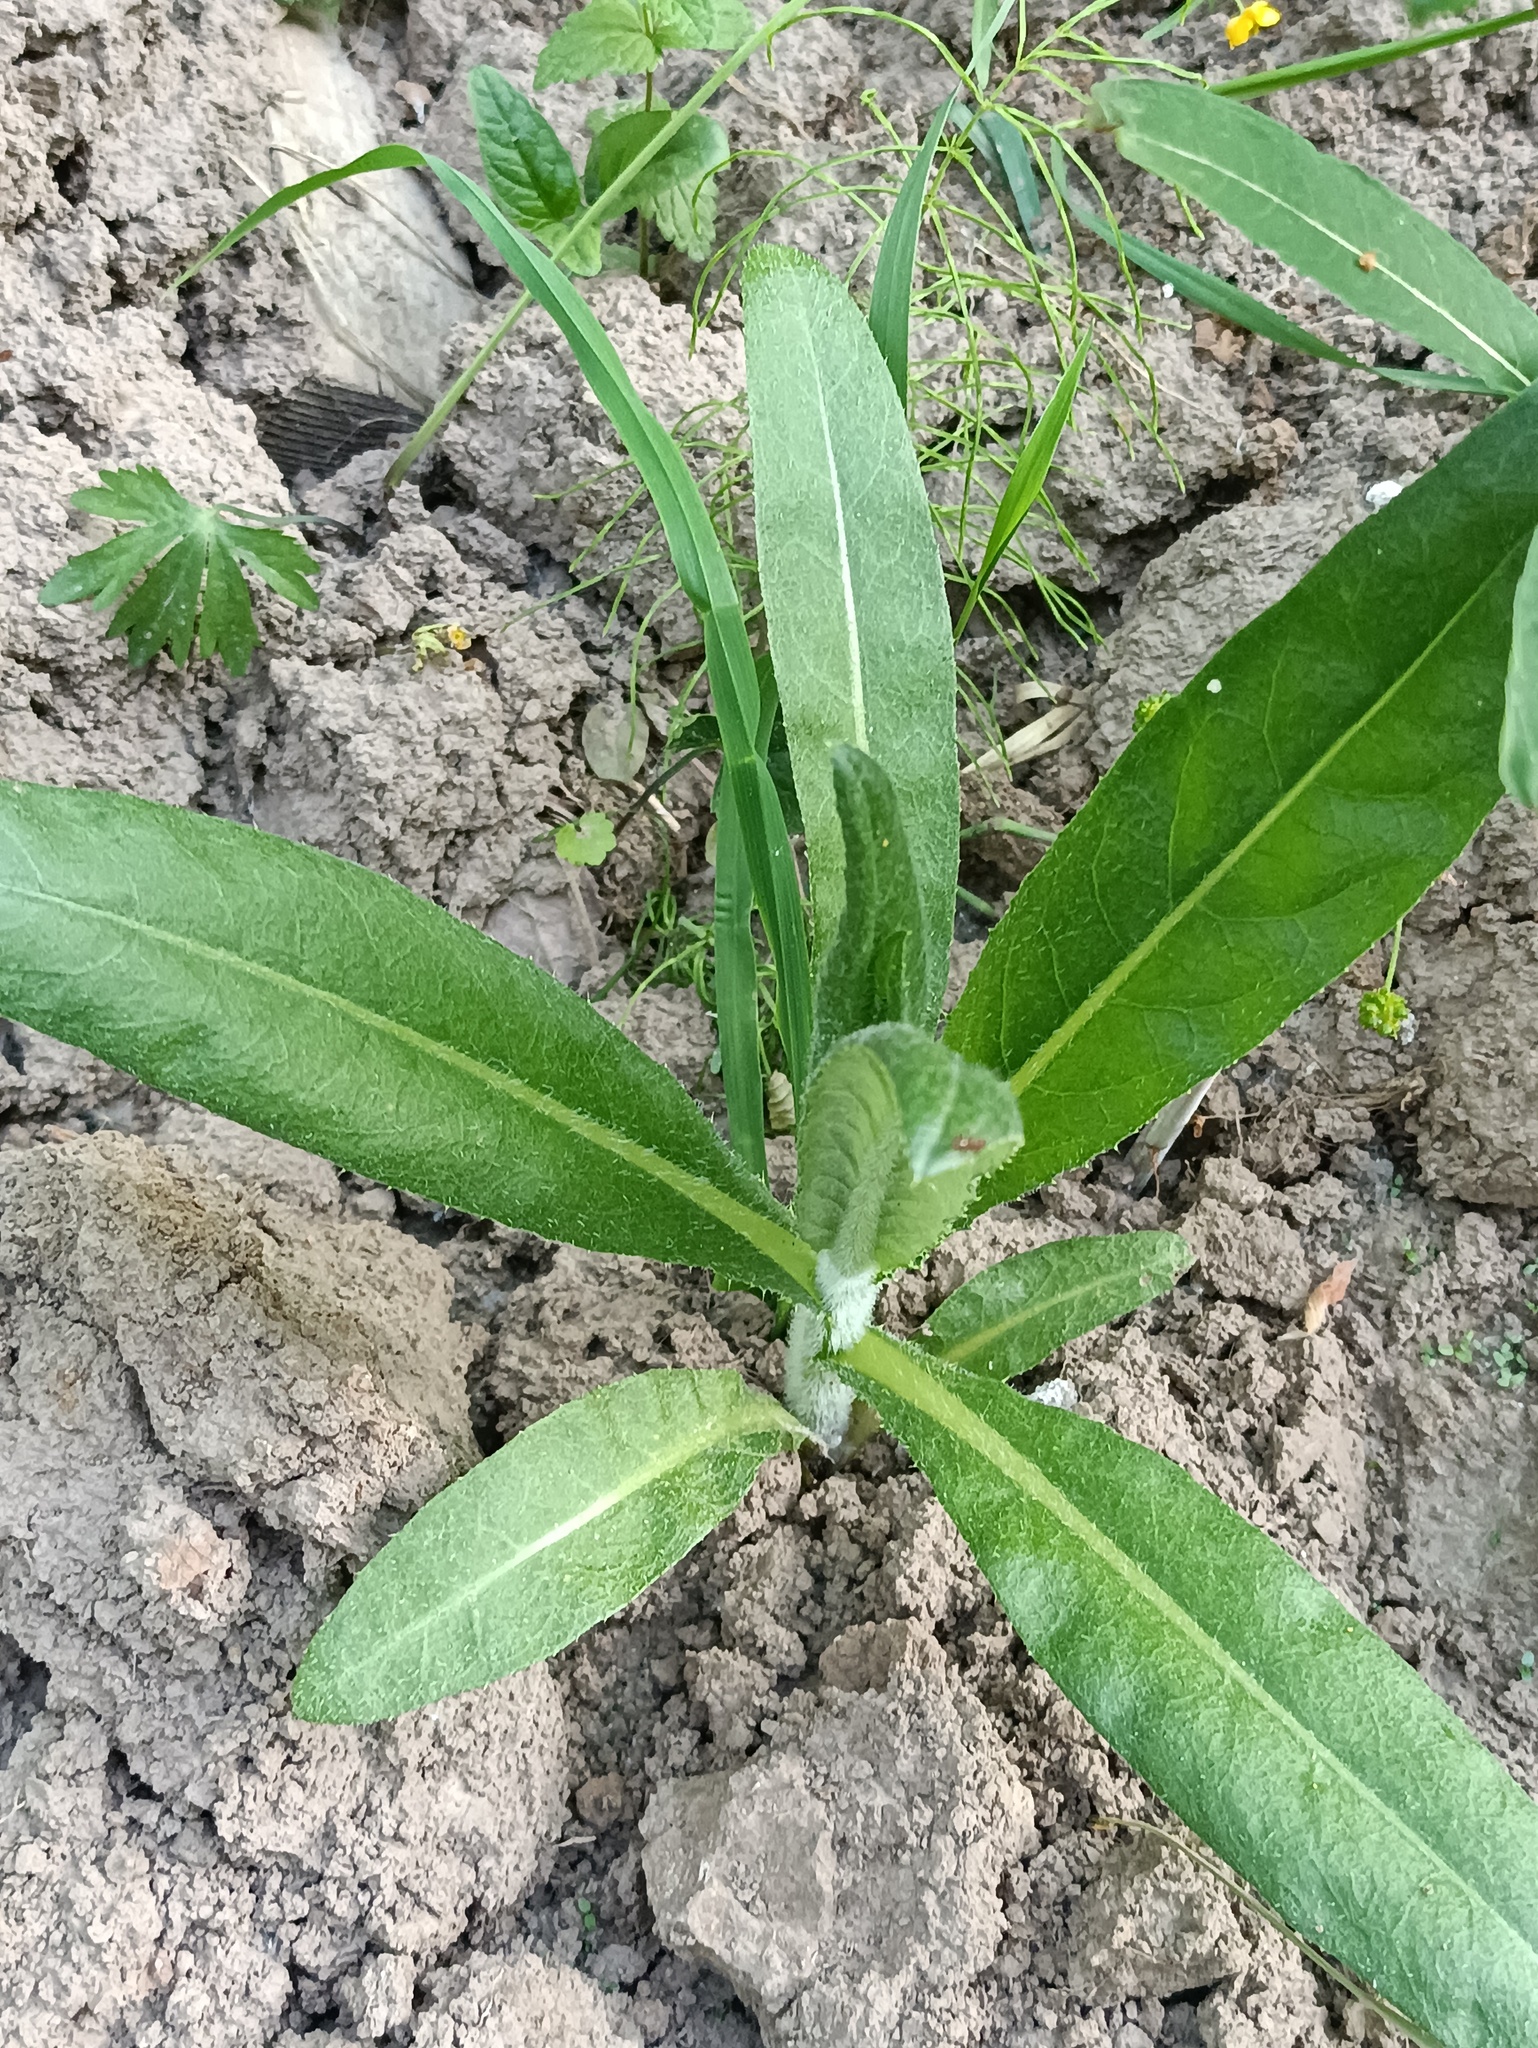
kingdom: Plantae
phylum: Tracheophyta
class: Magnoliopsida
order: Asterales
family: Asteraceae
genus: Cirsium
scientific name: Cirsium arvense
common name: Creeping thistle
